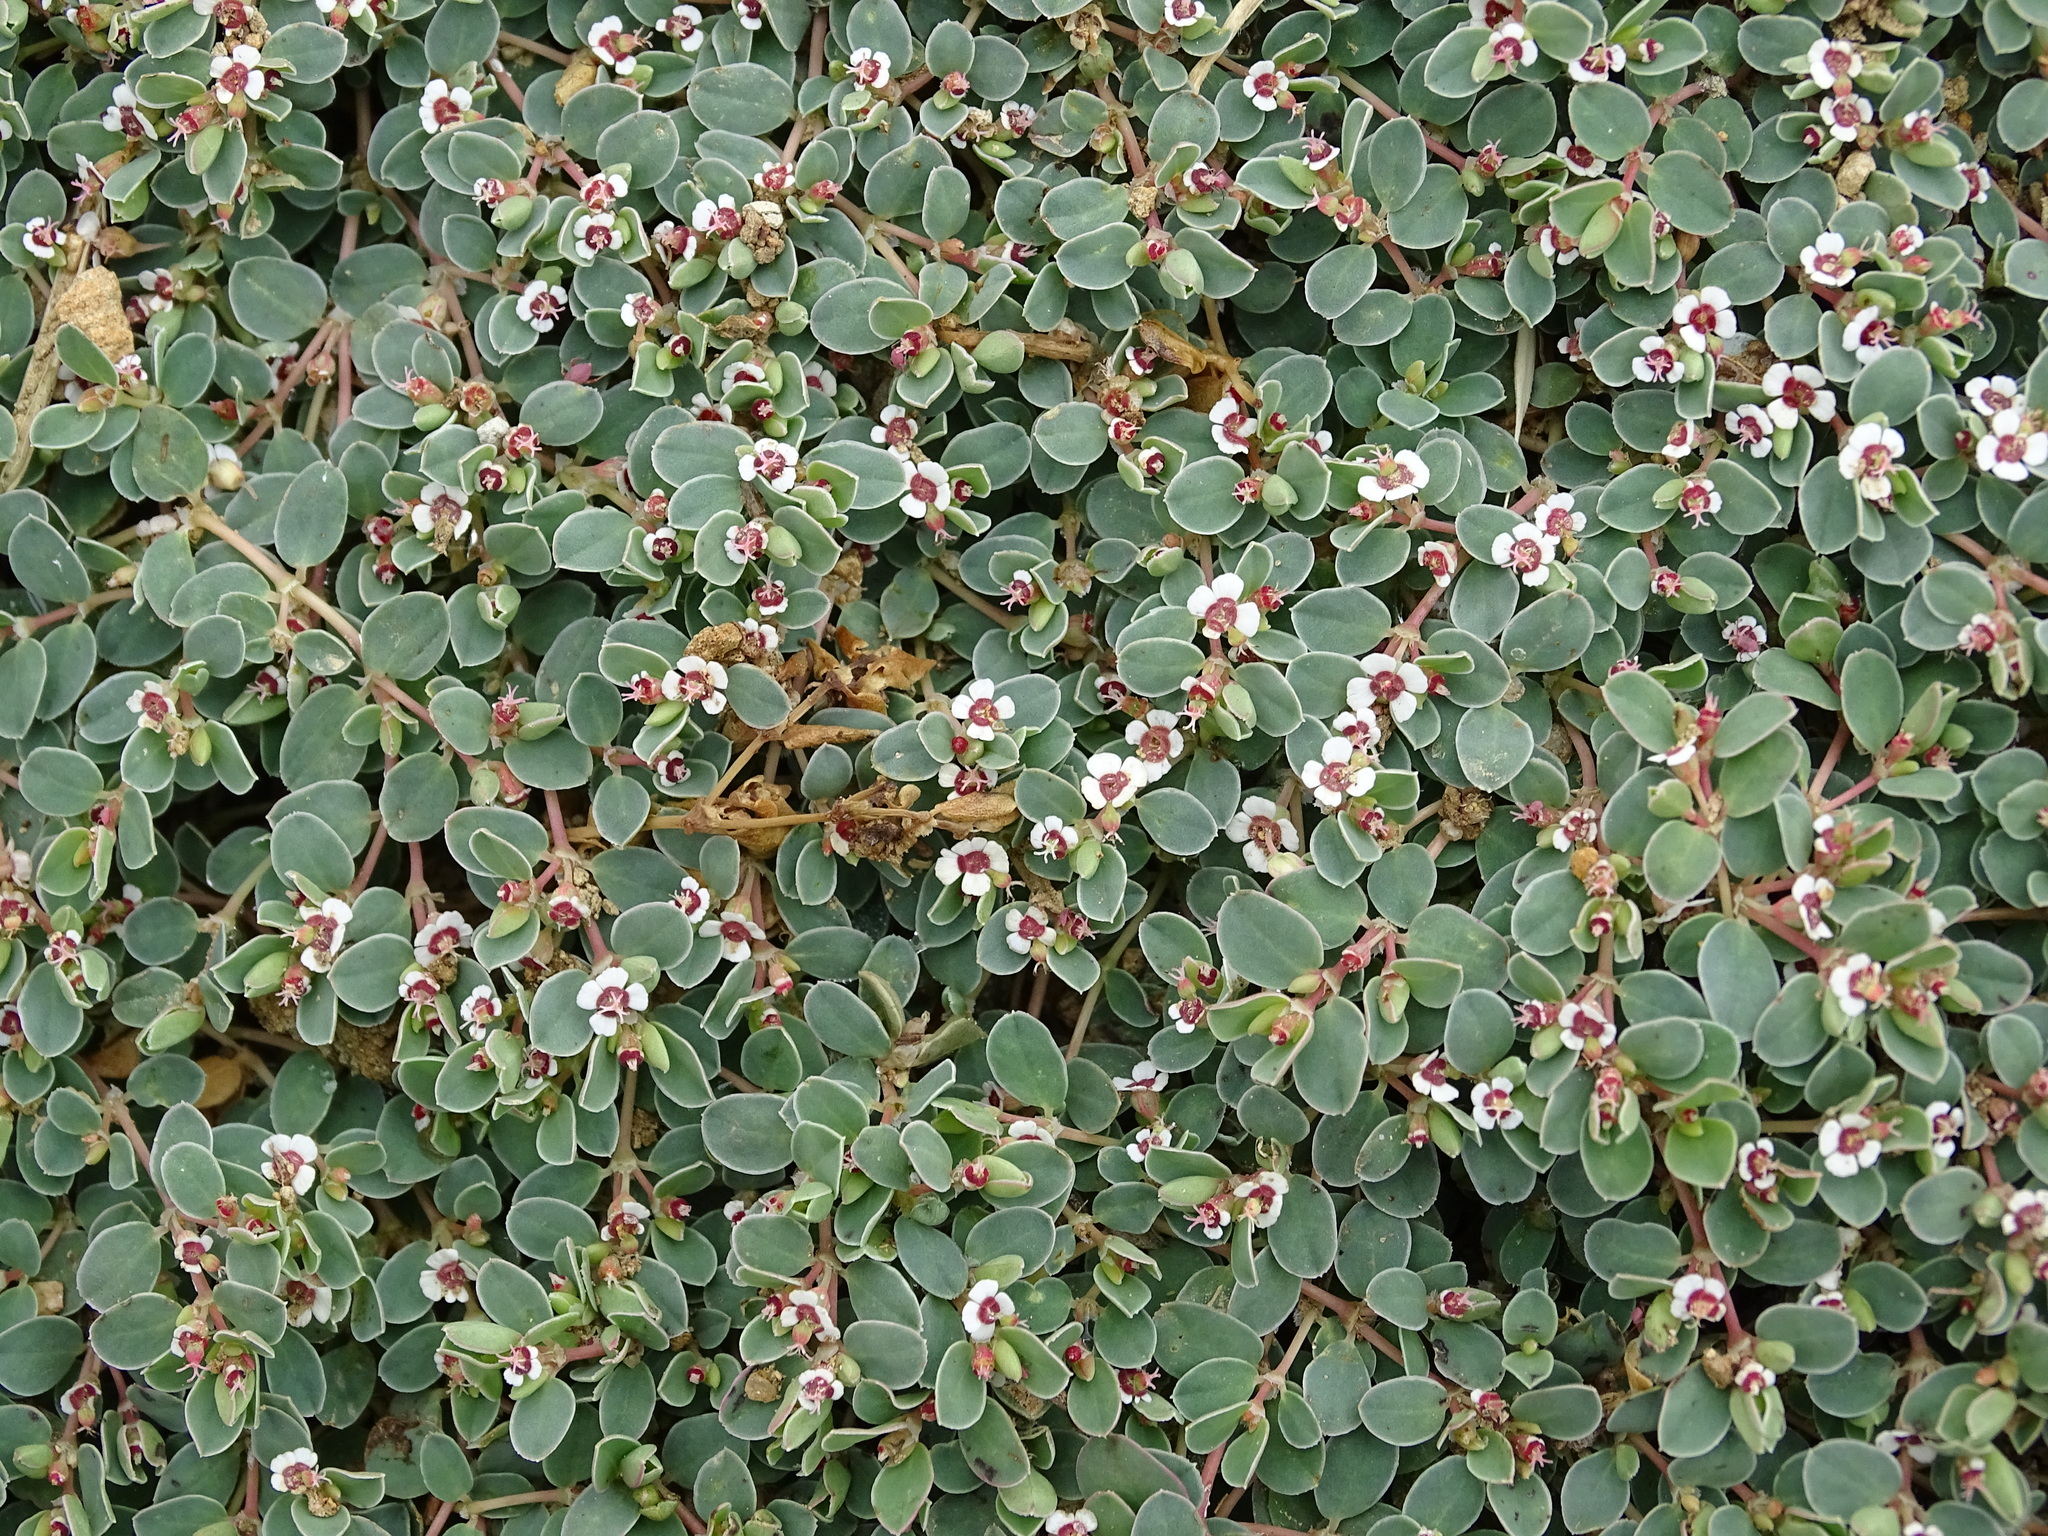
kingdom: Plantae
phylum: Tracheophyta
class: Magnoliopsida
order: Malpighiales
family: Euphorbiaceae
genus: Euphorbia
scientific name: Euphorbia albomarginata
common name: Whitemargin sandmat
